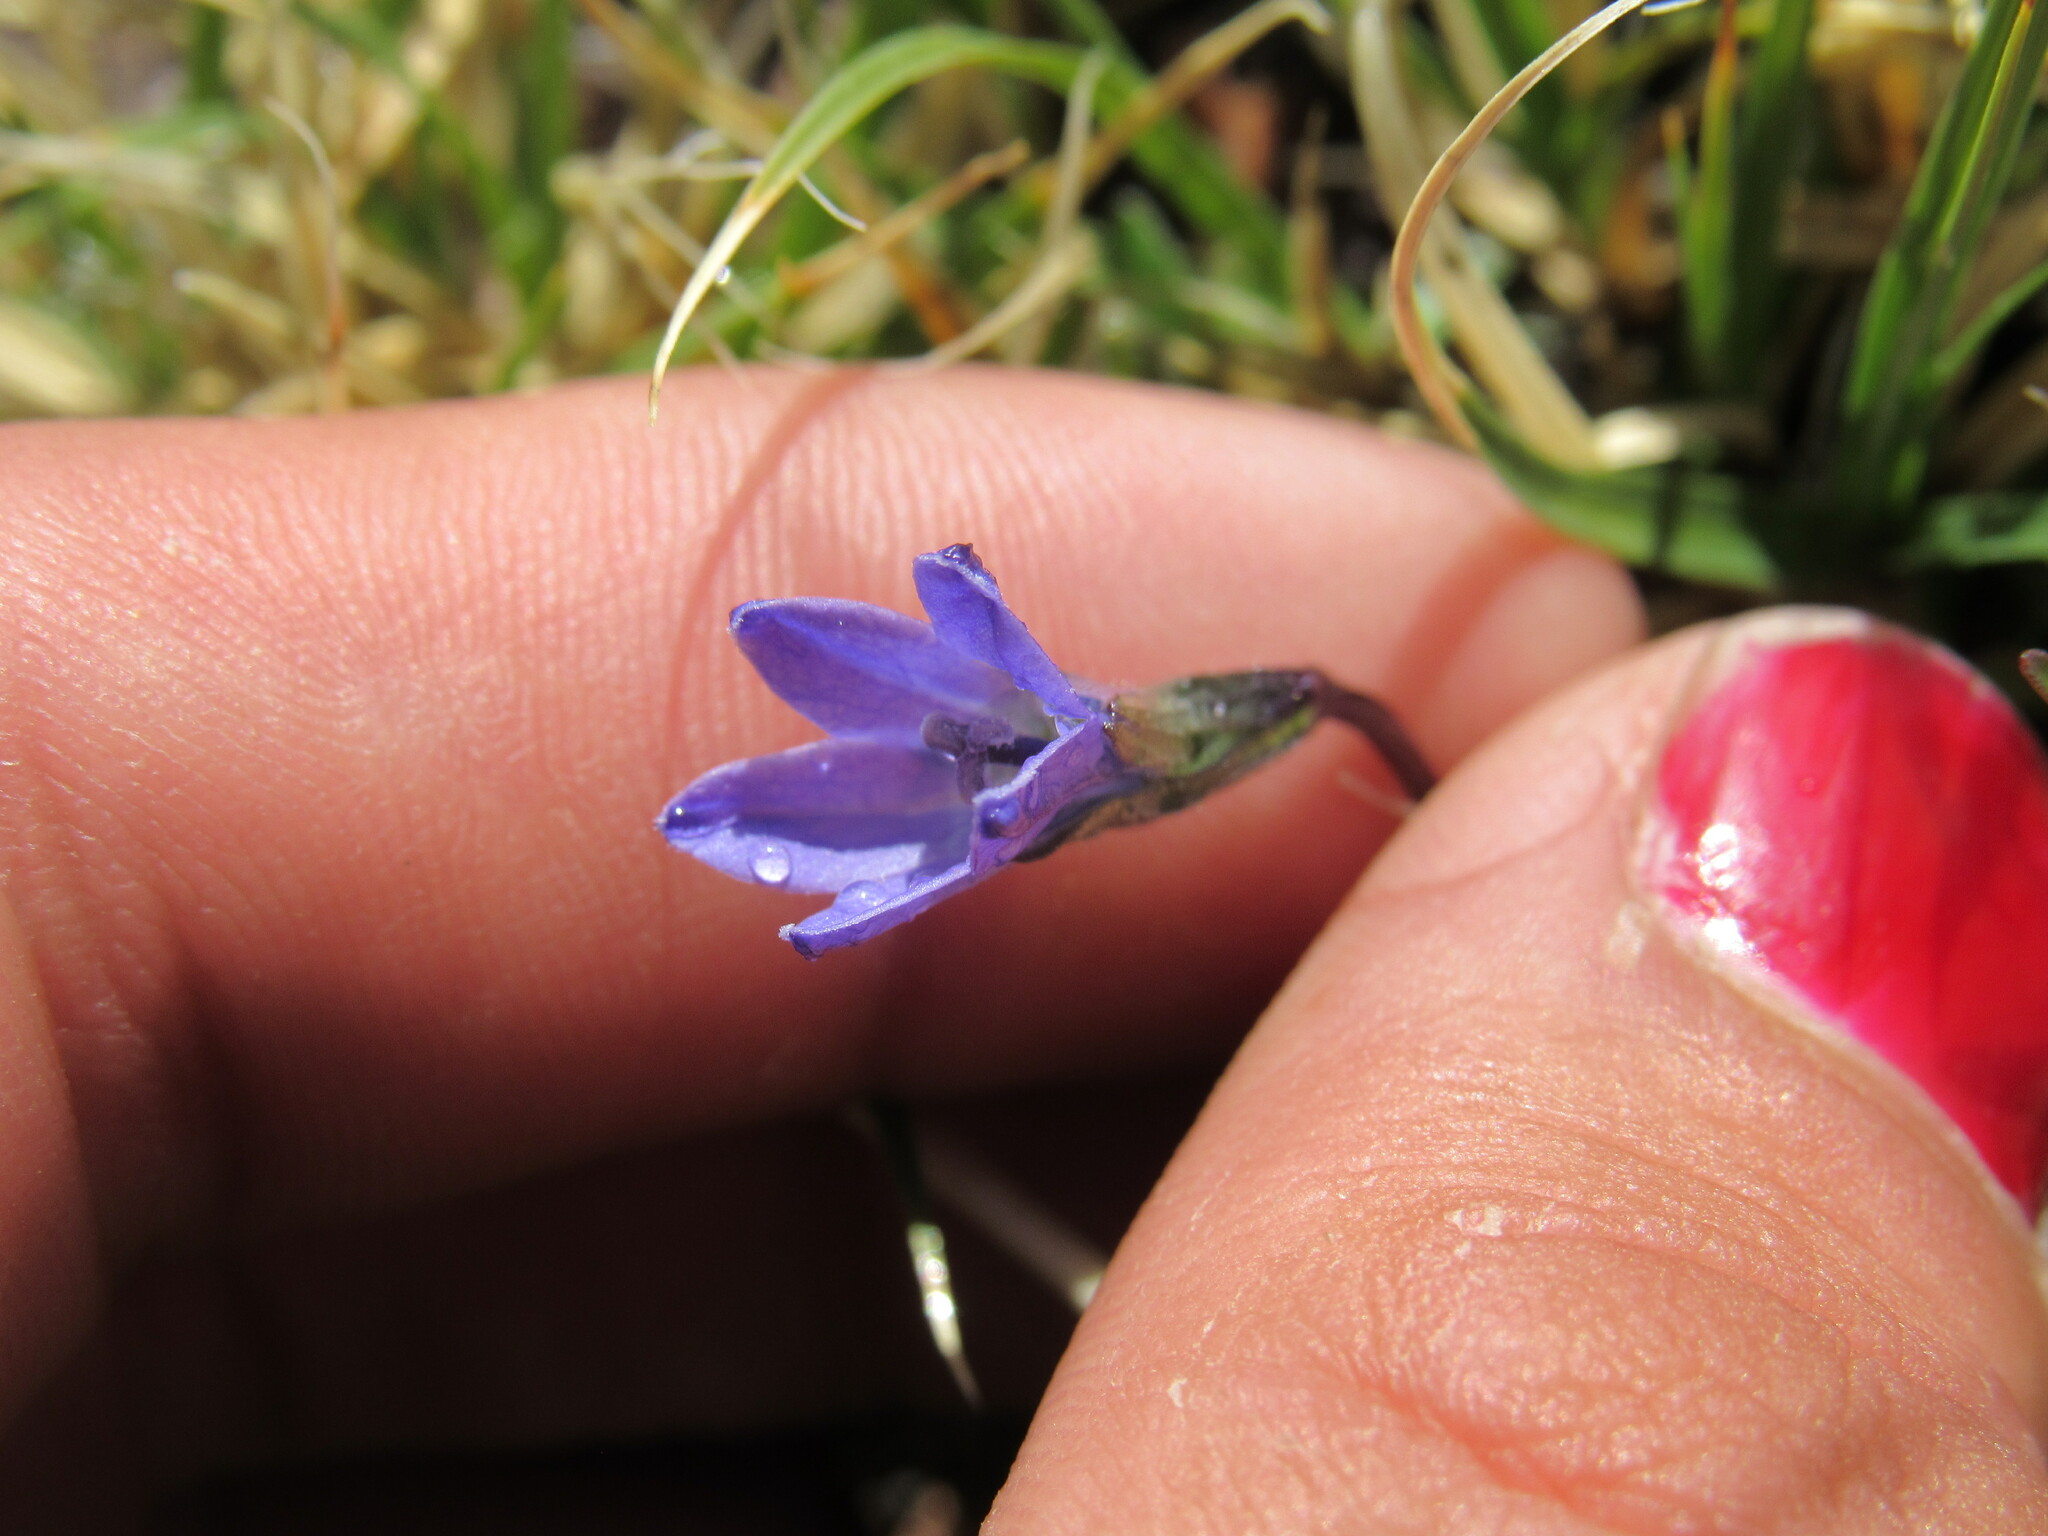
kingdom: Plantae
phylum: Tracheophyta
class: Magnoliopsida
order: Asterales
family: Campanulaceae
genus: Campanula
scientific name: Campanula uniflora
